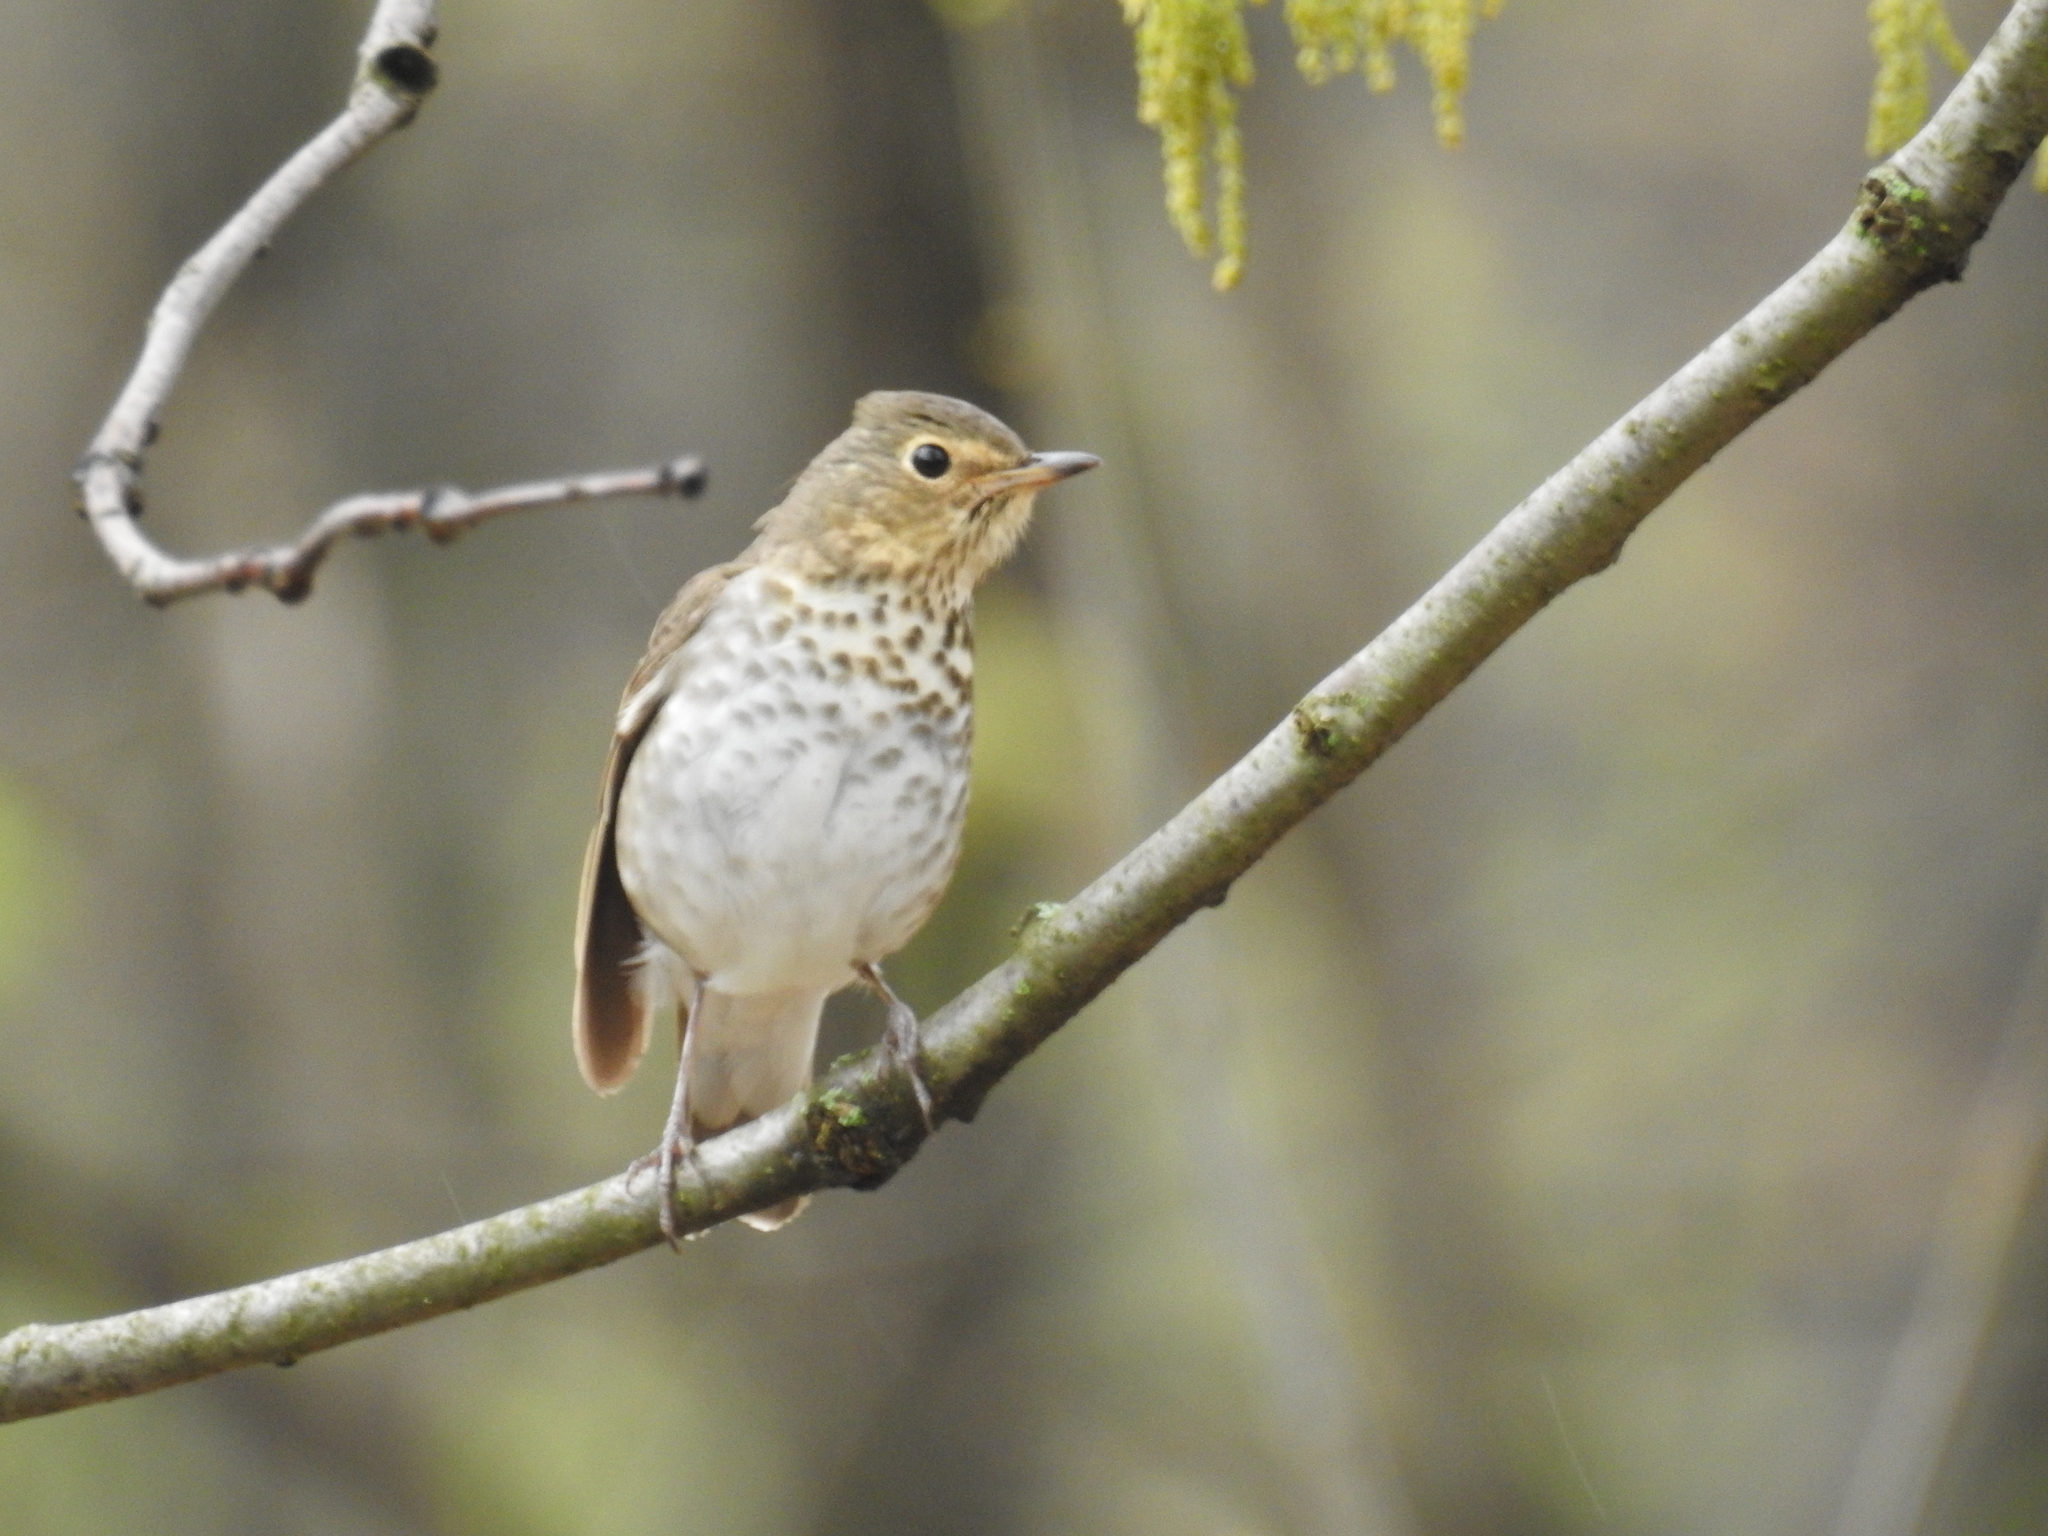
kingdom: Animalia
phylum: Chordata
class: Aves
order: Passeriformes
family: Turdidae
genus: Catharus
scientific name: Catharus ustulatus
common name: Swainson's thrush
